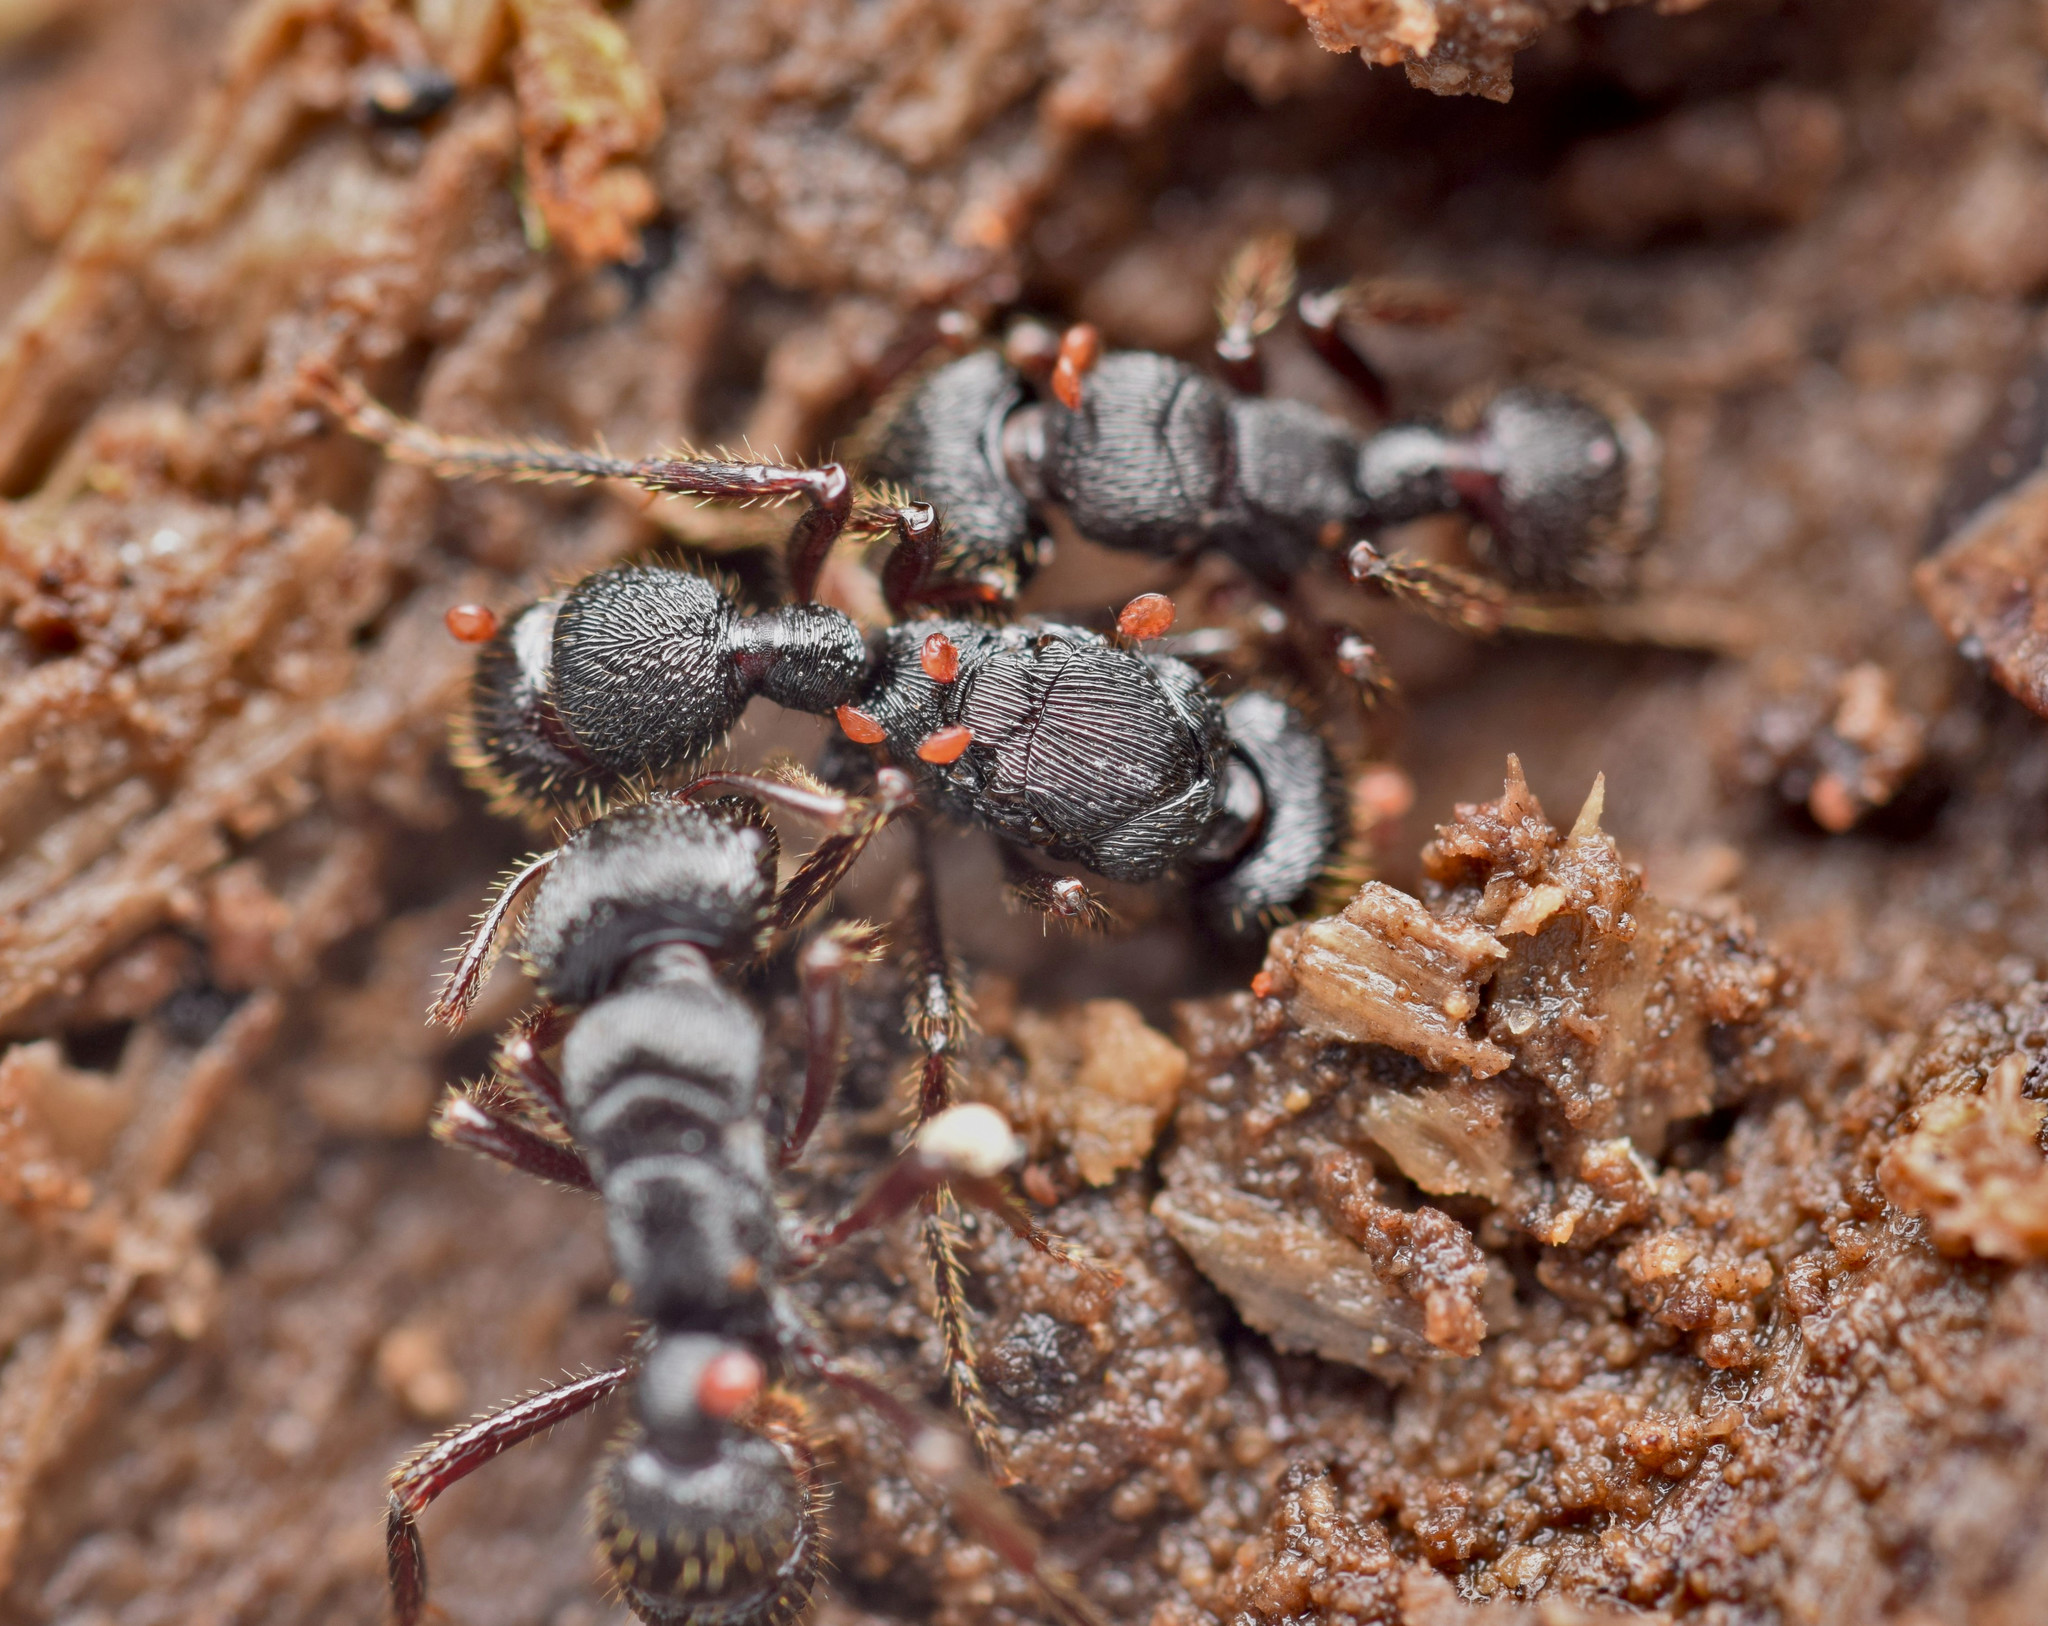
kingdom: Animalia
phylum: Arthropoda
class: Insecta
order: Hymenoptera
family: Formicidae
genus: Poneracantha
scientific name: Poneracantha
